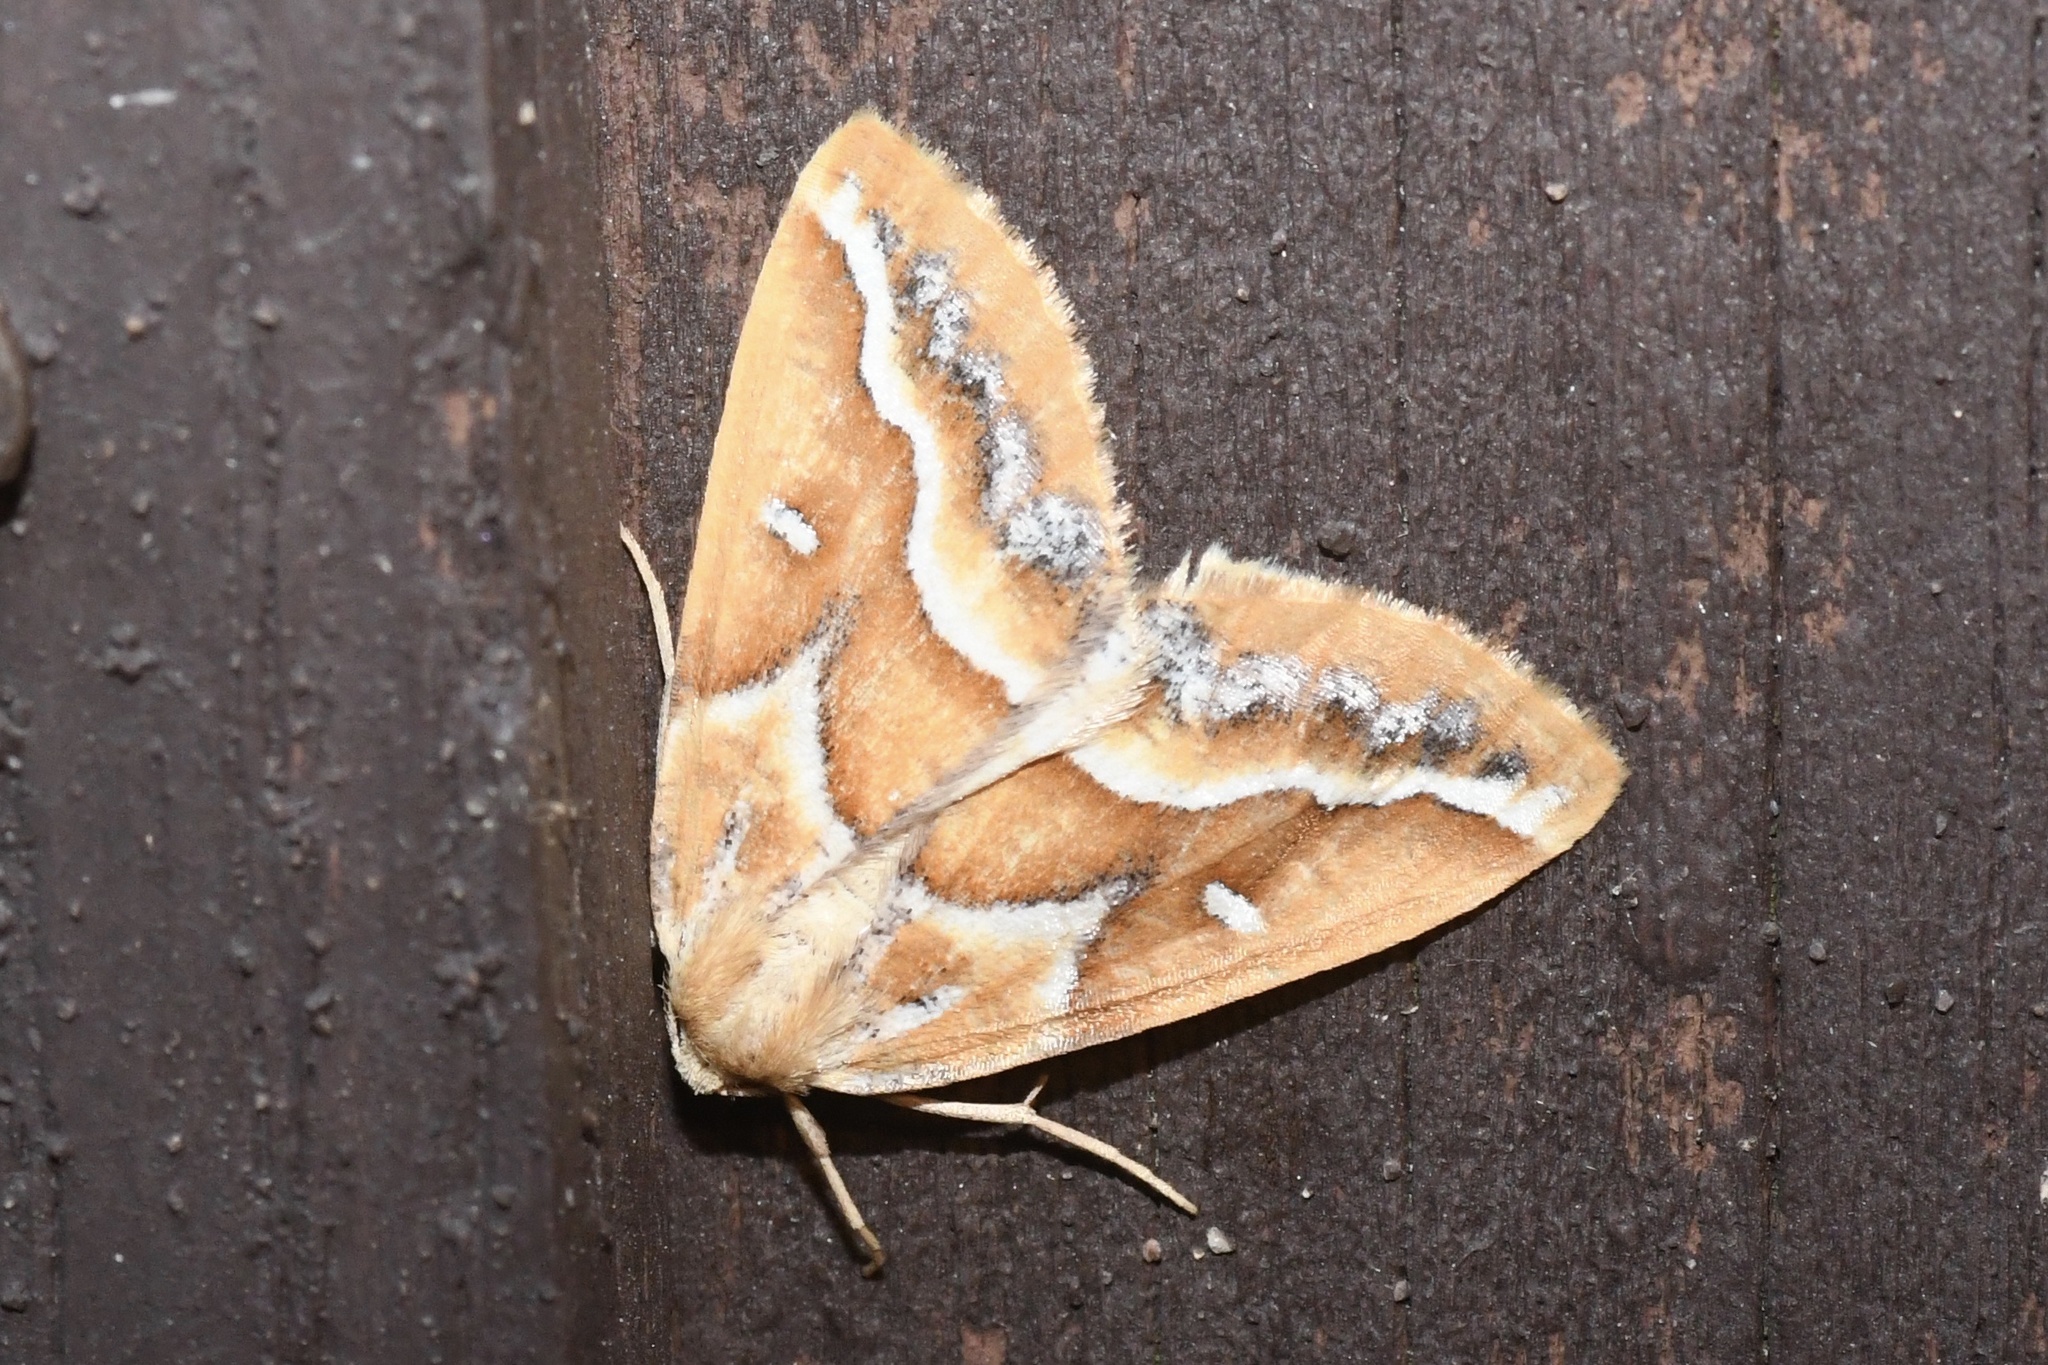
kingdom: Animalia
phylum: Arthropoda
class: Insecta
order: Lepidoptera
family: Geometridae
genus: Caripeta
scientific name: Caripeta angustiorata
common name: Brown pine looper
